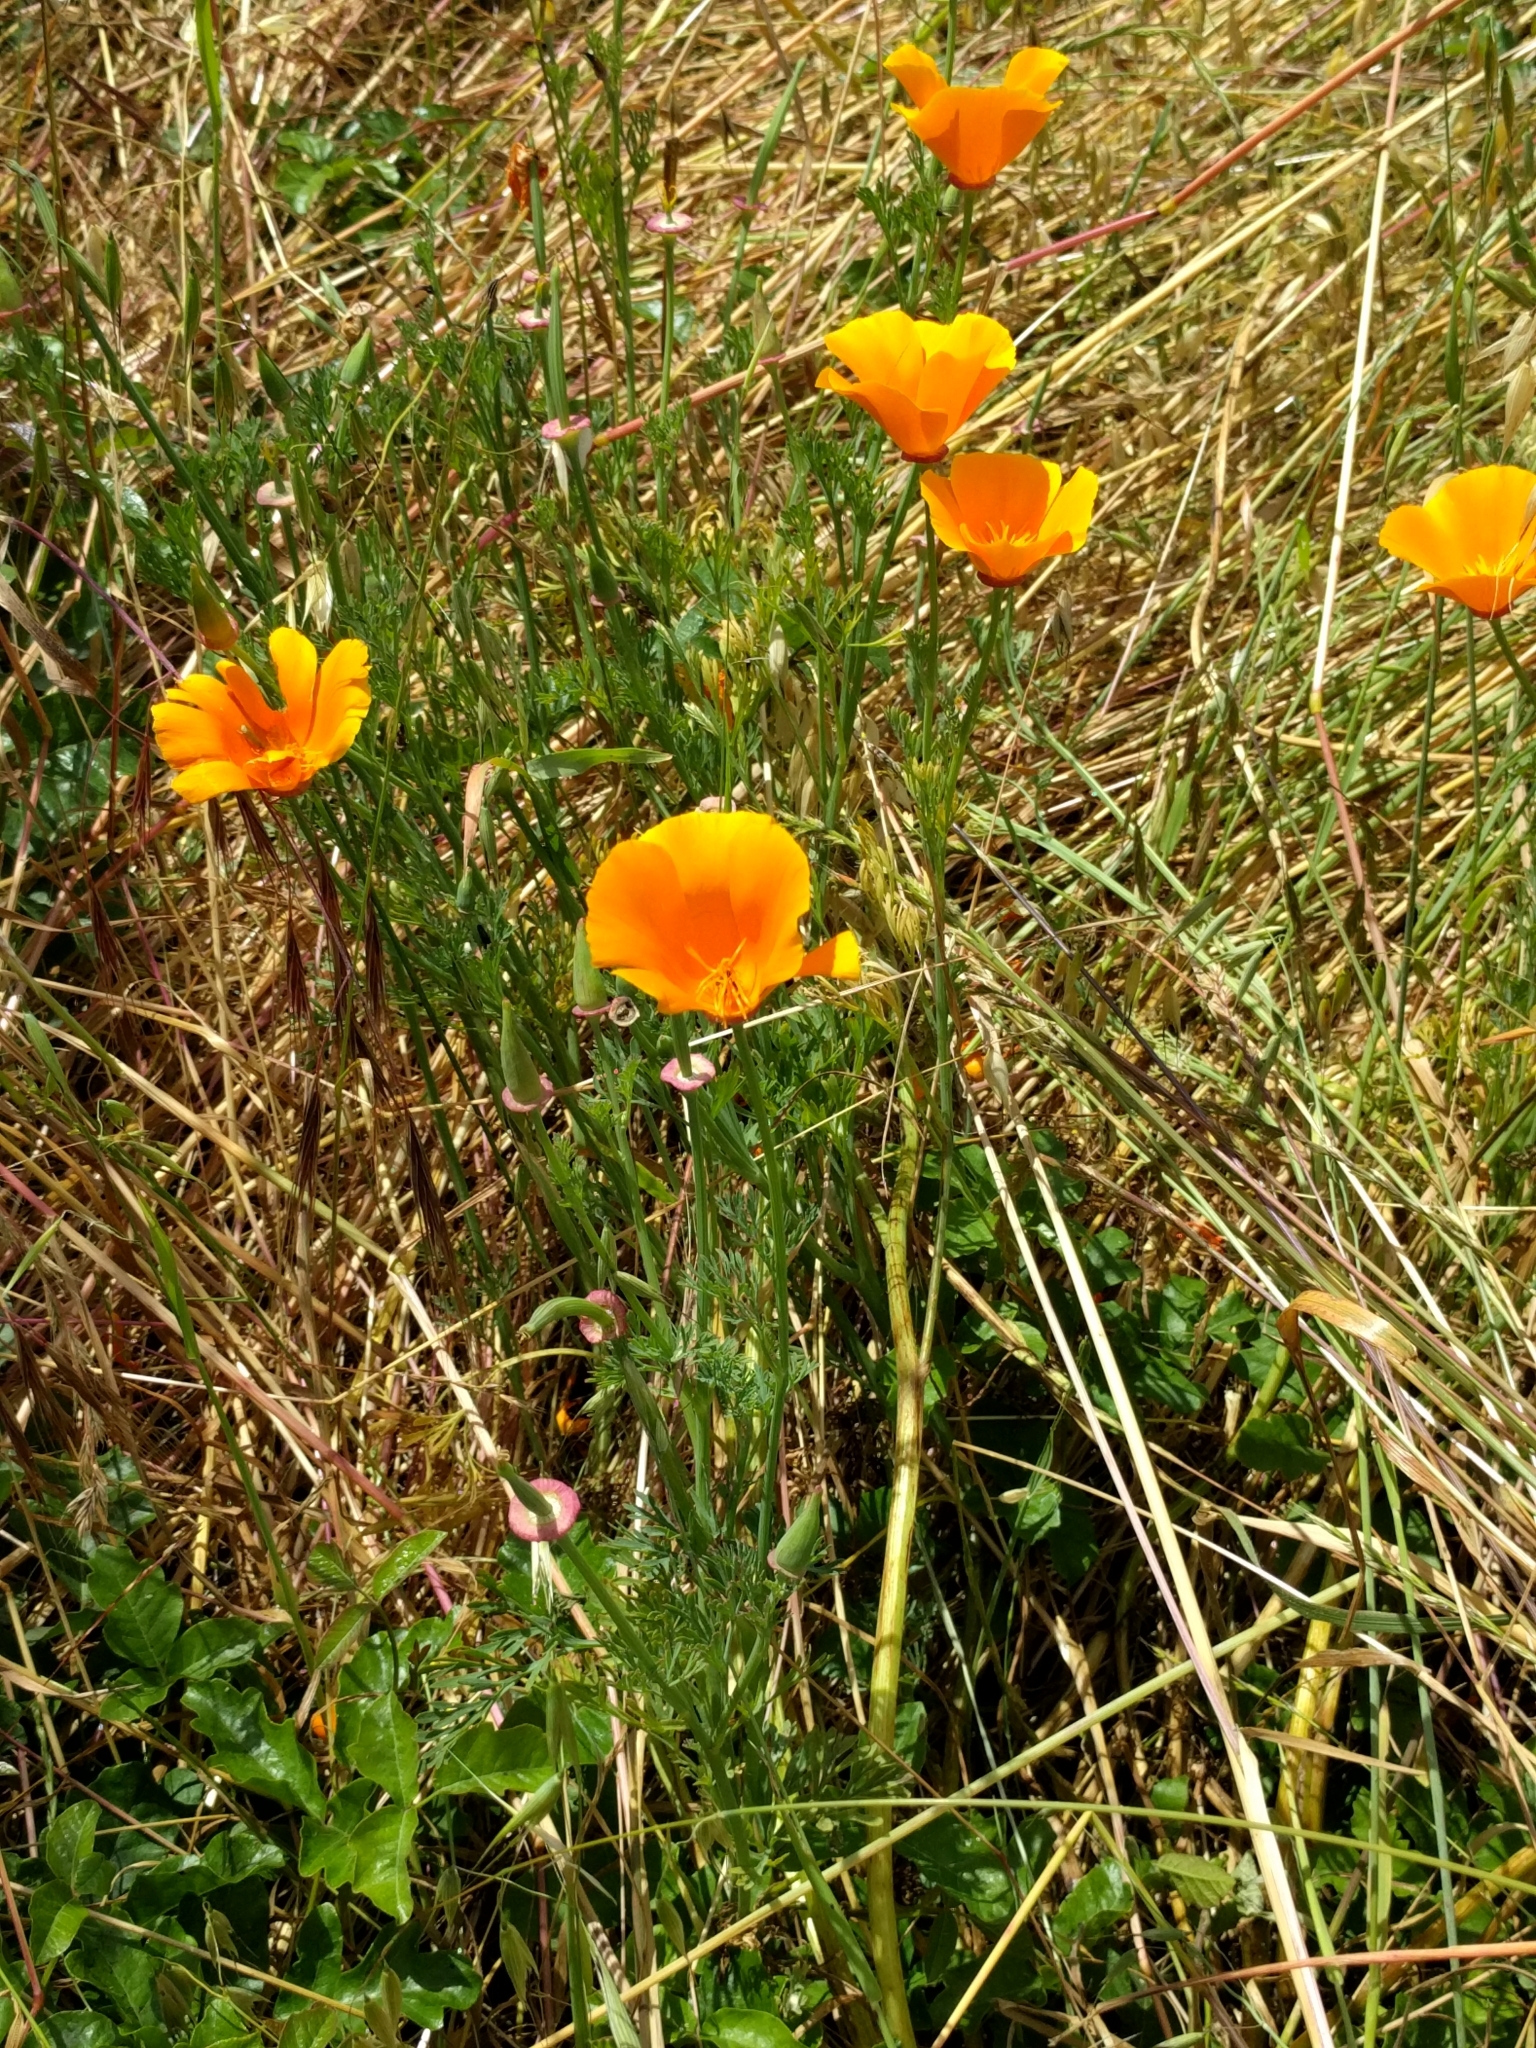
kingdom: Plantae
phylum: Tracheophyta
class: Magnoliopsida
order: Ranunculales
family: Papaveraceae
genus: Eschscholzia
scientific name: Eschscholzia californica
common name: California poppy
